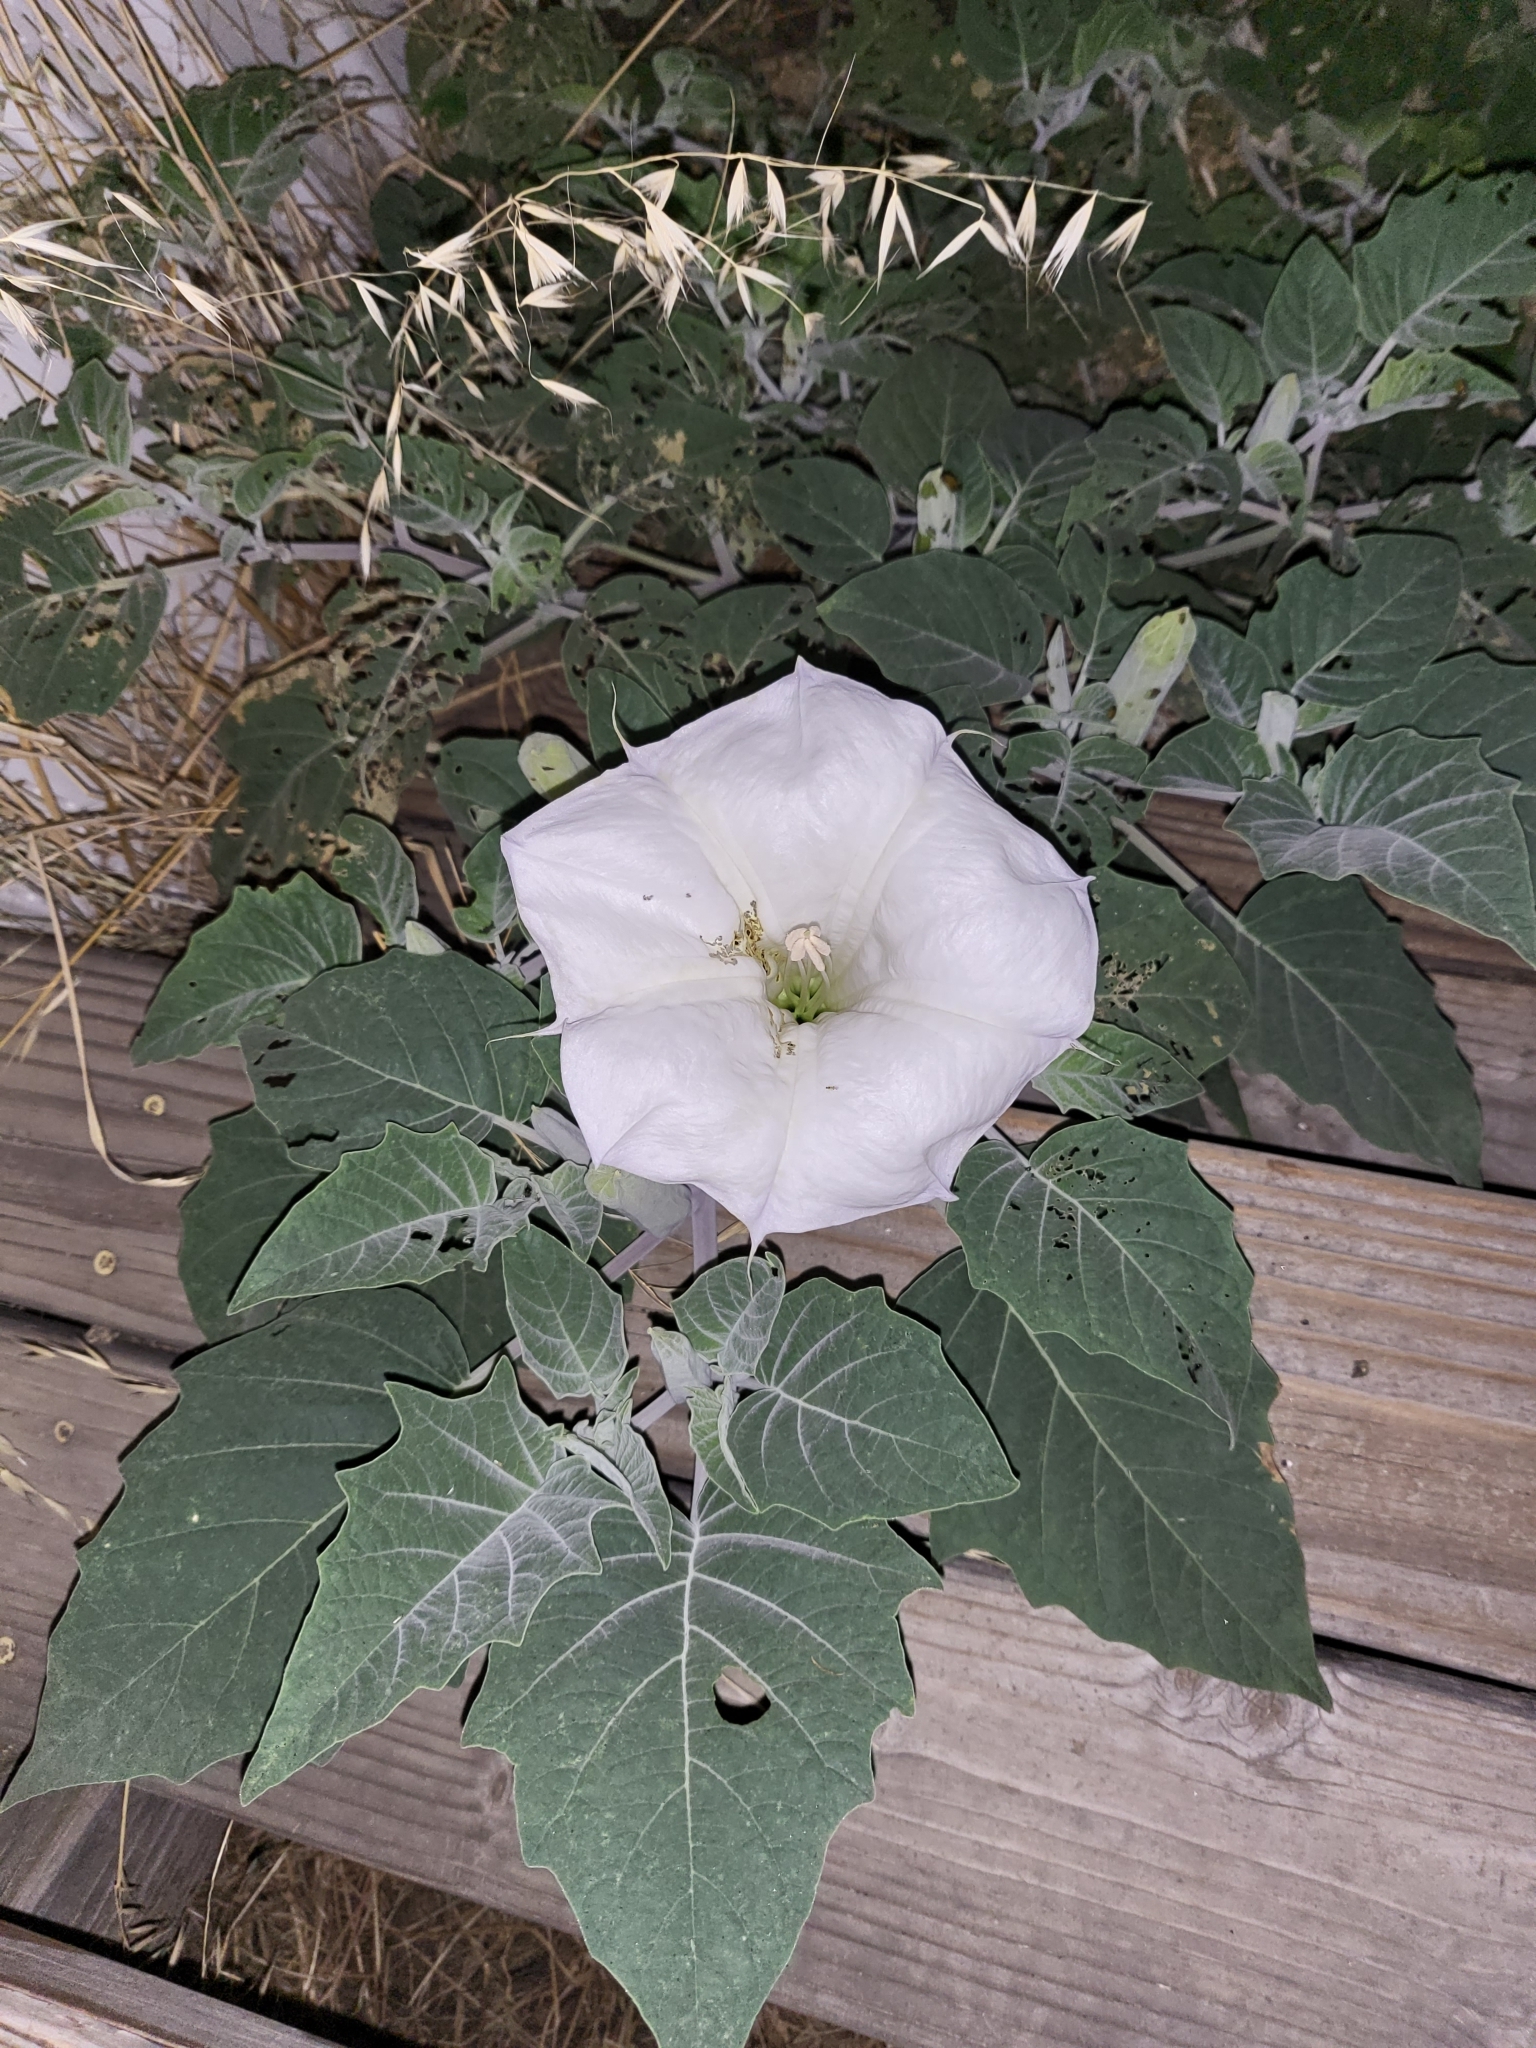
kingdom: Plantae
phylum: Tracheophyta
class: Magnoliopsida
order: Solanales
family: Solanaceae
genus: Datura
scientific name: Datura wrightii
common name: Sacred thorn-apple
